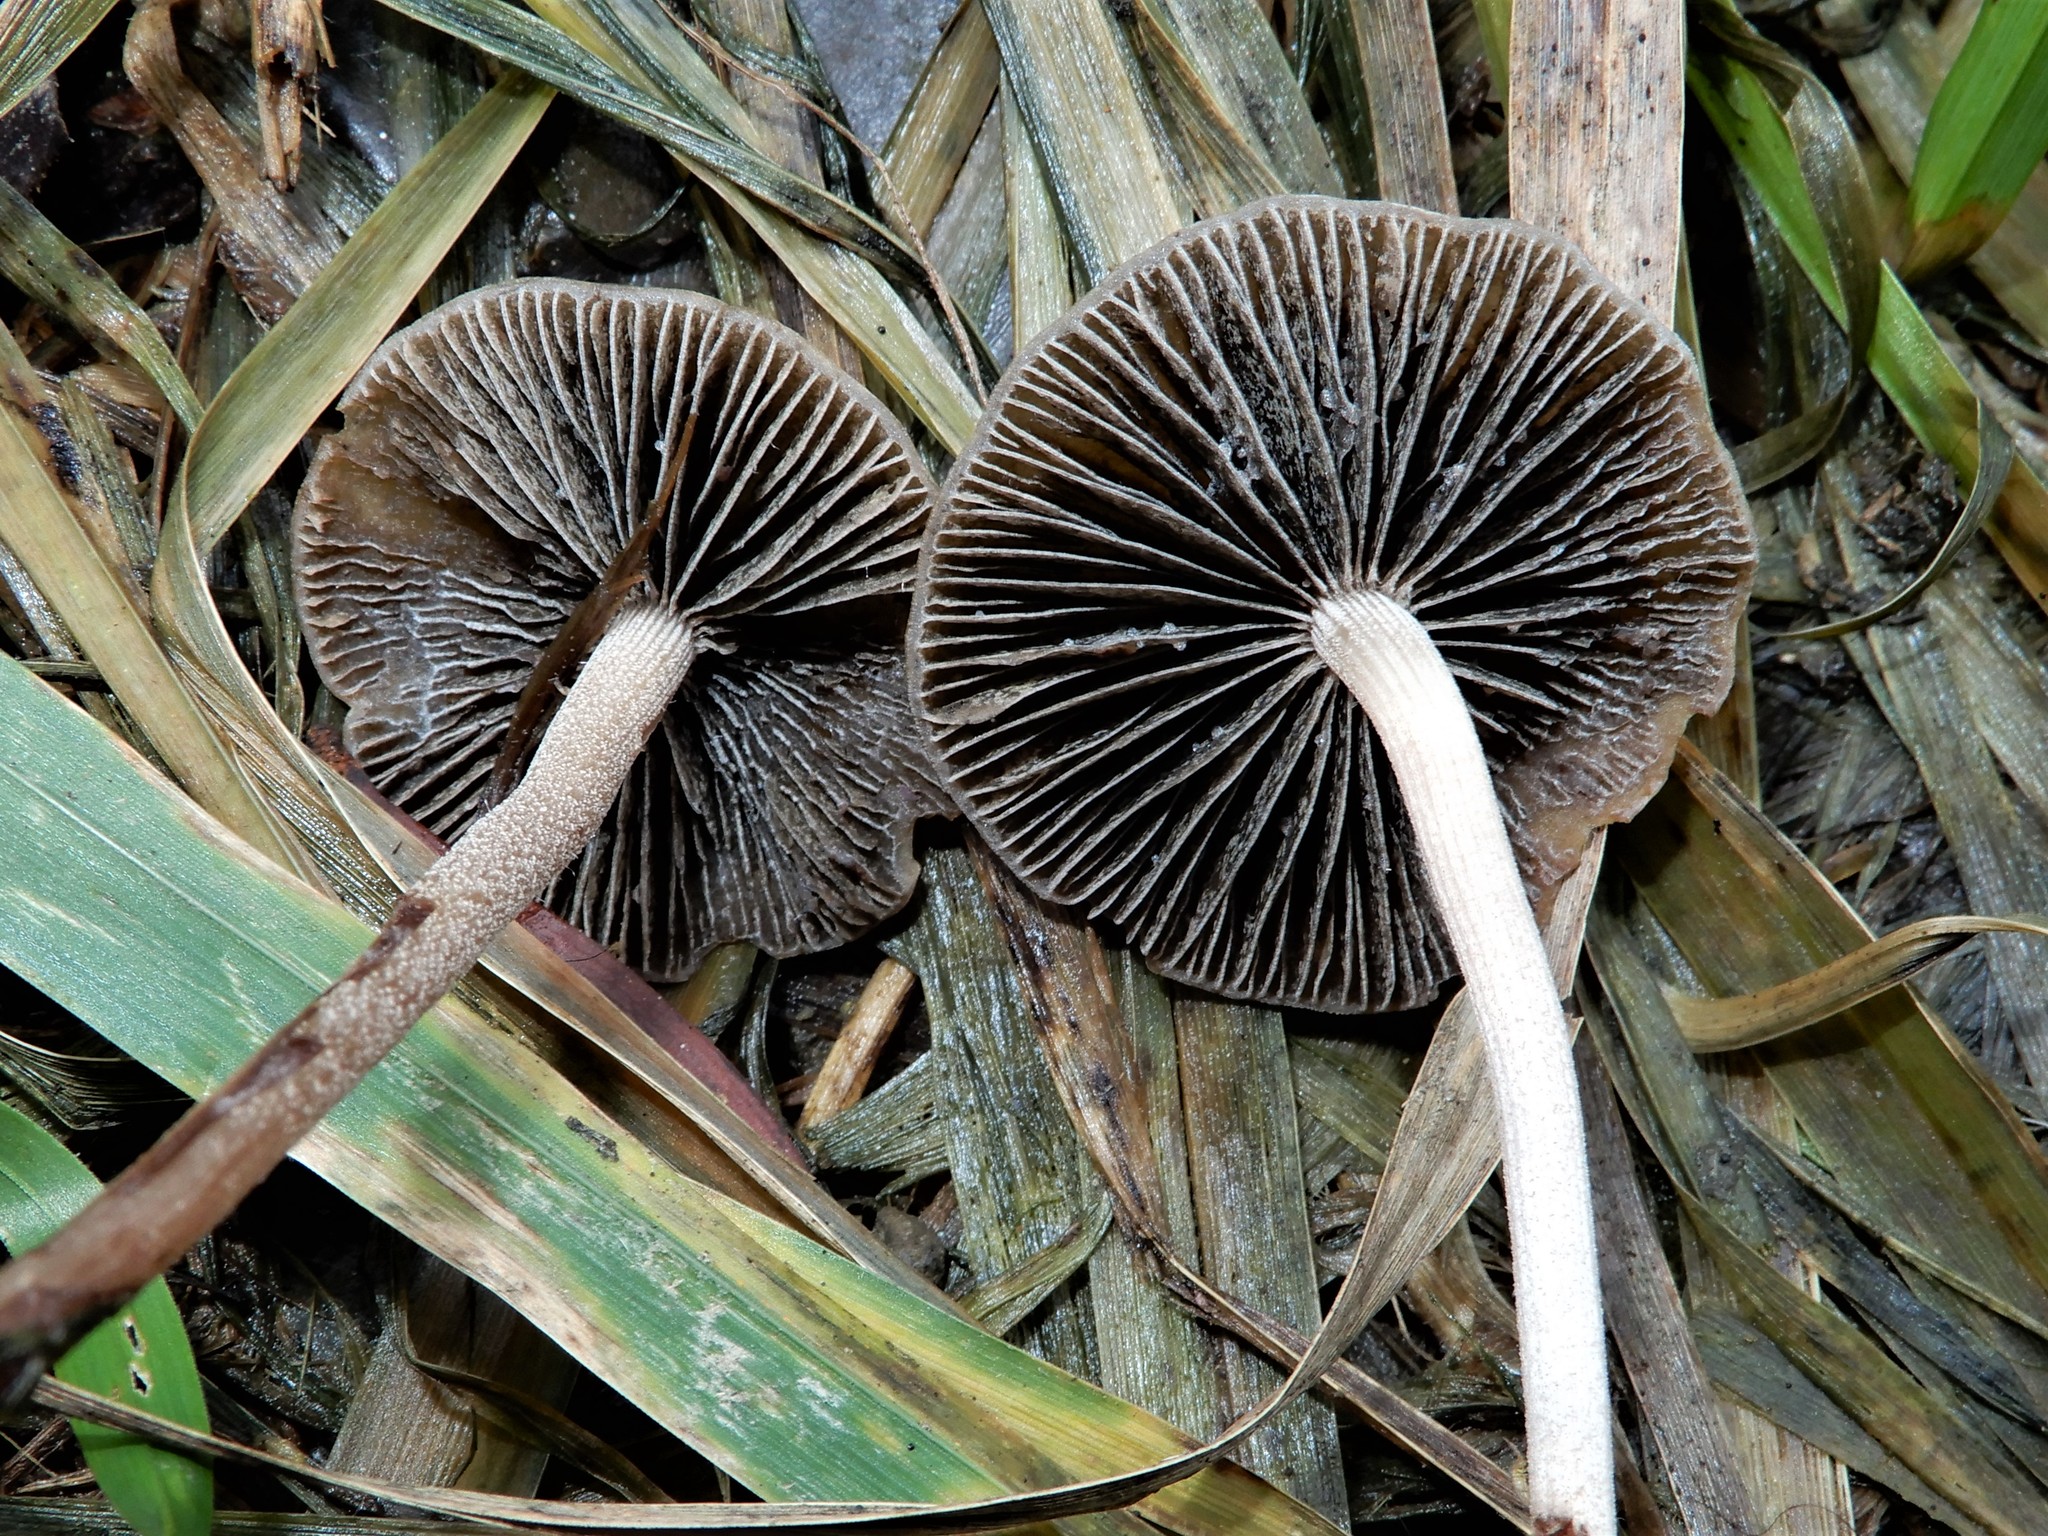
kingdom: Fungi
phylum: Basidiomycota
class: Agaricomycetes
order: Agaricales
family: Bolbitiaceae
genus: Panaeolus
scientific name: Panaeolus olivaceus
